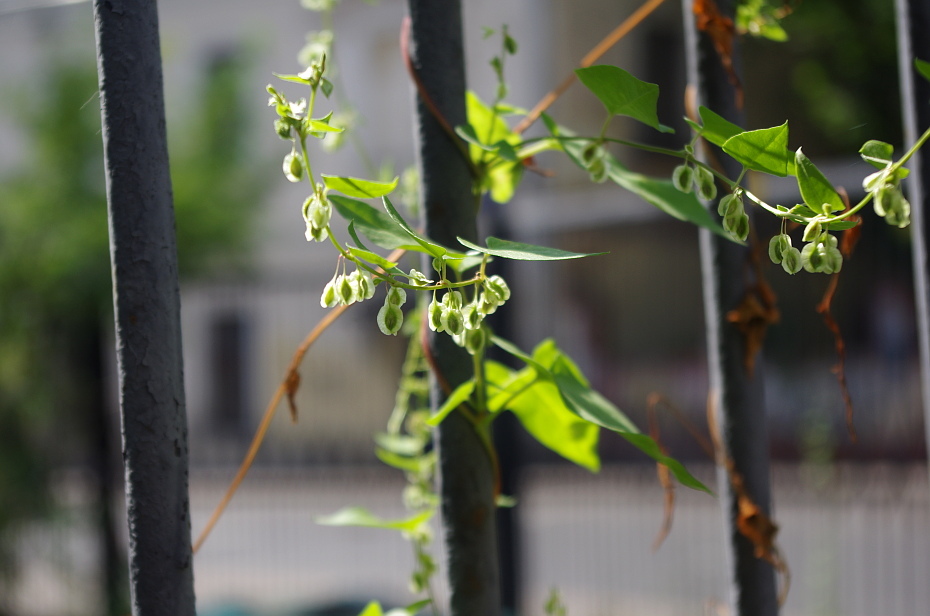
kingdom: Plantae
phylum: Tracheophyta
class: Magnoliopsida
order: Caryophyllales
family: Polygonaceae
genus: Fallopia
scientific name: Fallopia dumetorum
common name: Copse-bindweed
